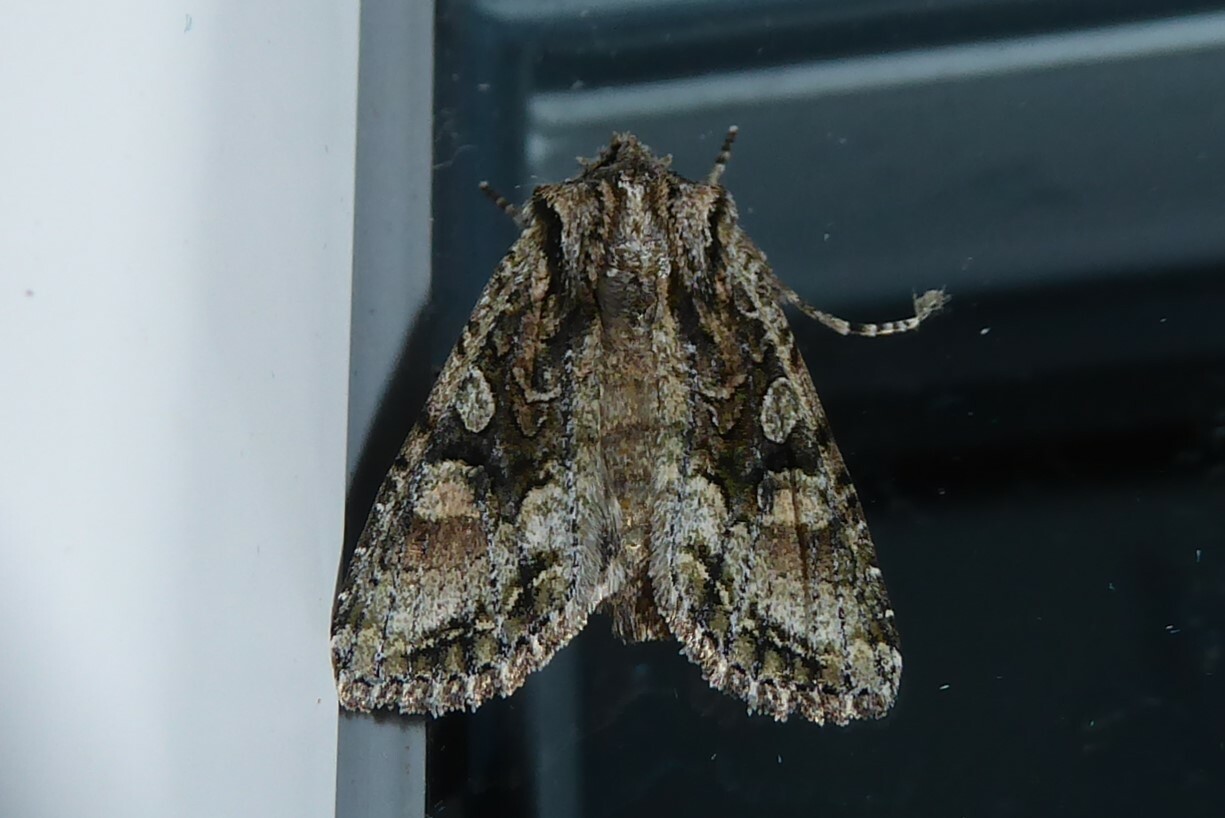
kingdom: Animalia
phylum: Arthropoda
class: Insecta
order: Lepidoptera
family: Noctuidae
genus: Ichneutica
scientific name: Ichneutica mutans
